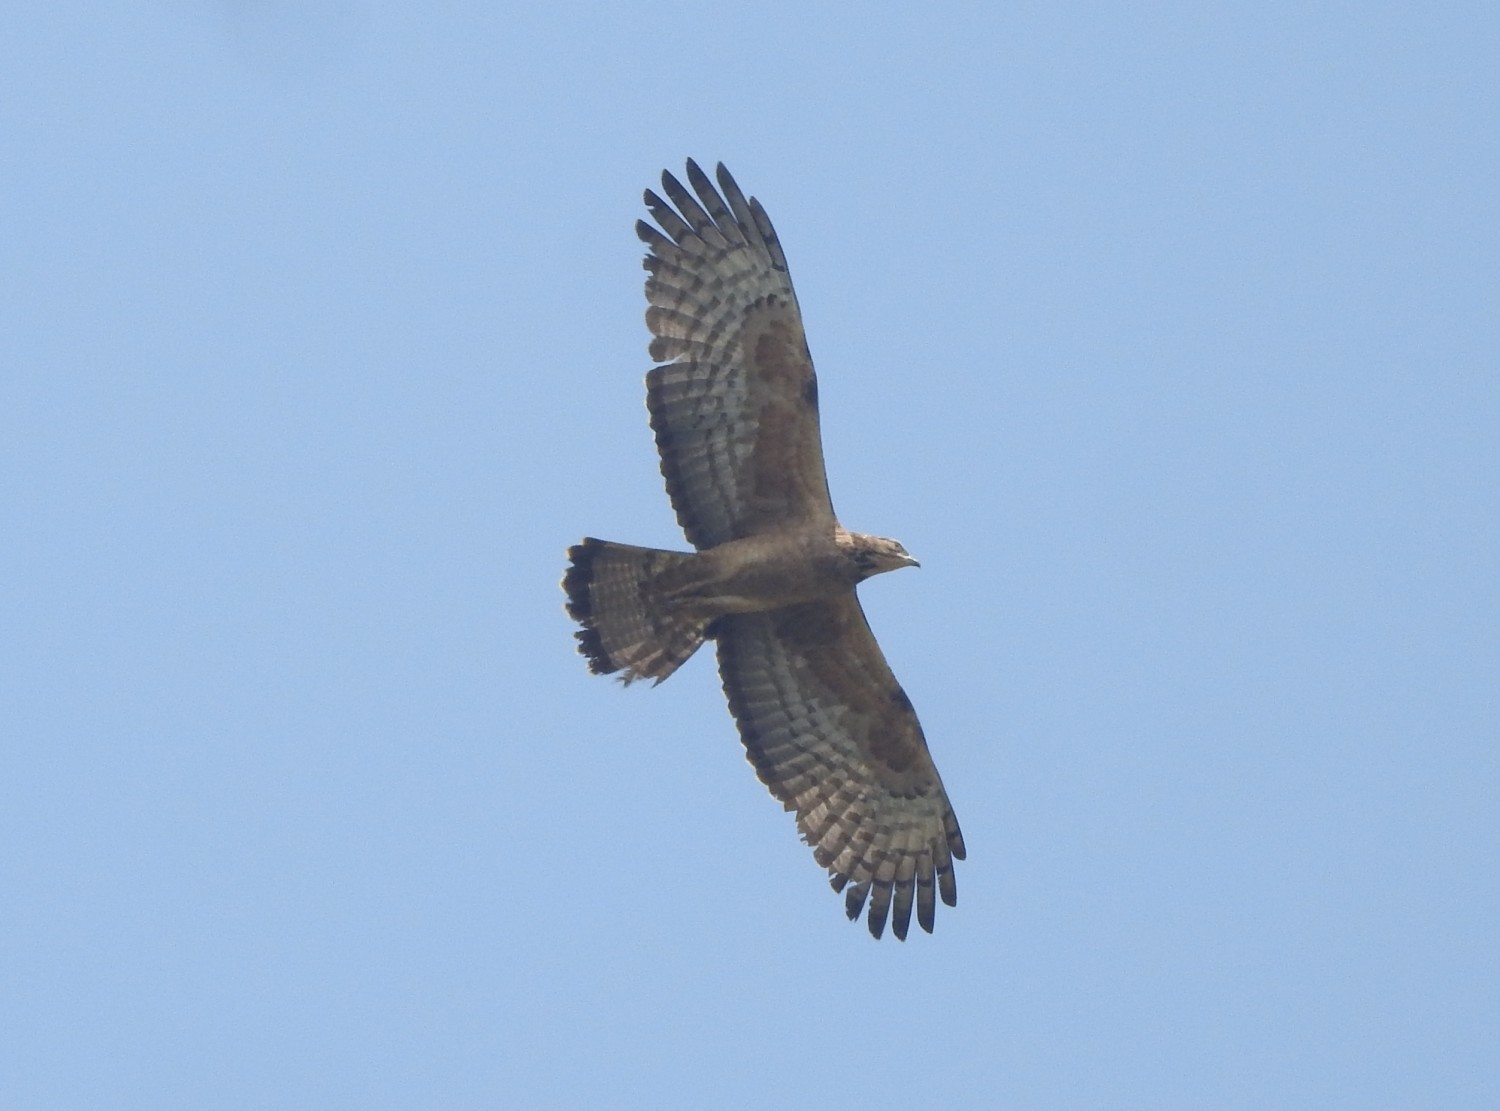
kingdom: Animalia
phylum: Chordata
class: Aves
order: Accipitriformes
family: Accipitridae
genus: Pernis
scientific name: Pernis ptilorhynchus
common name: Crested honey buzzard
